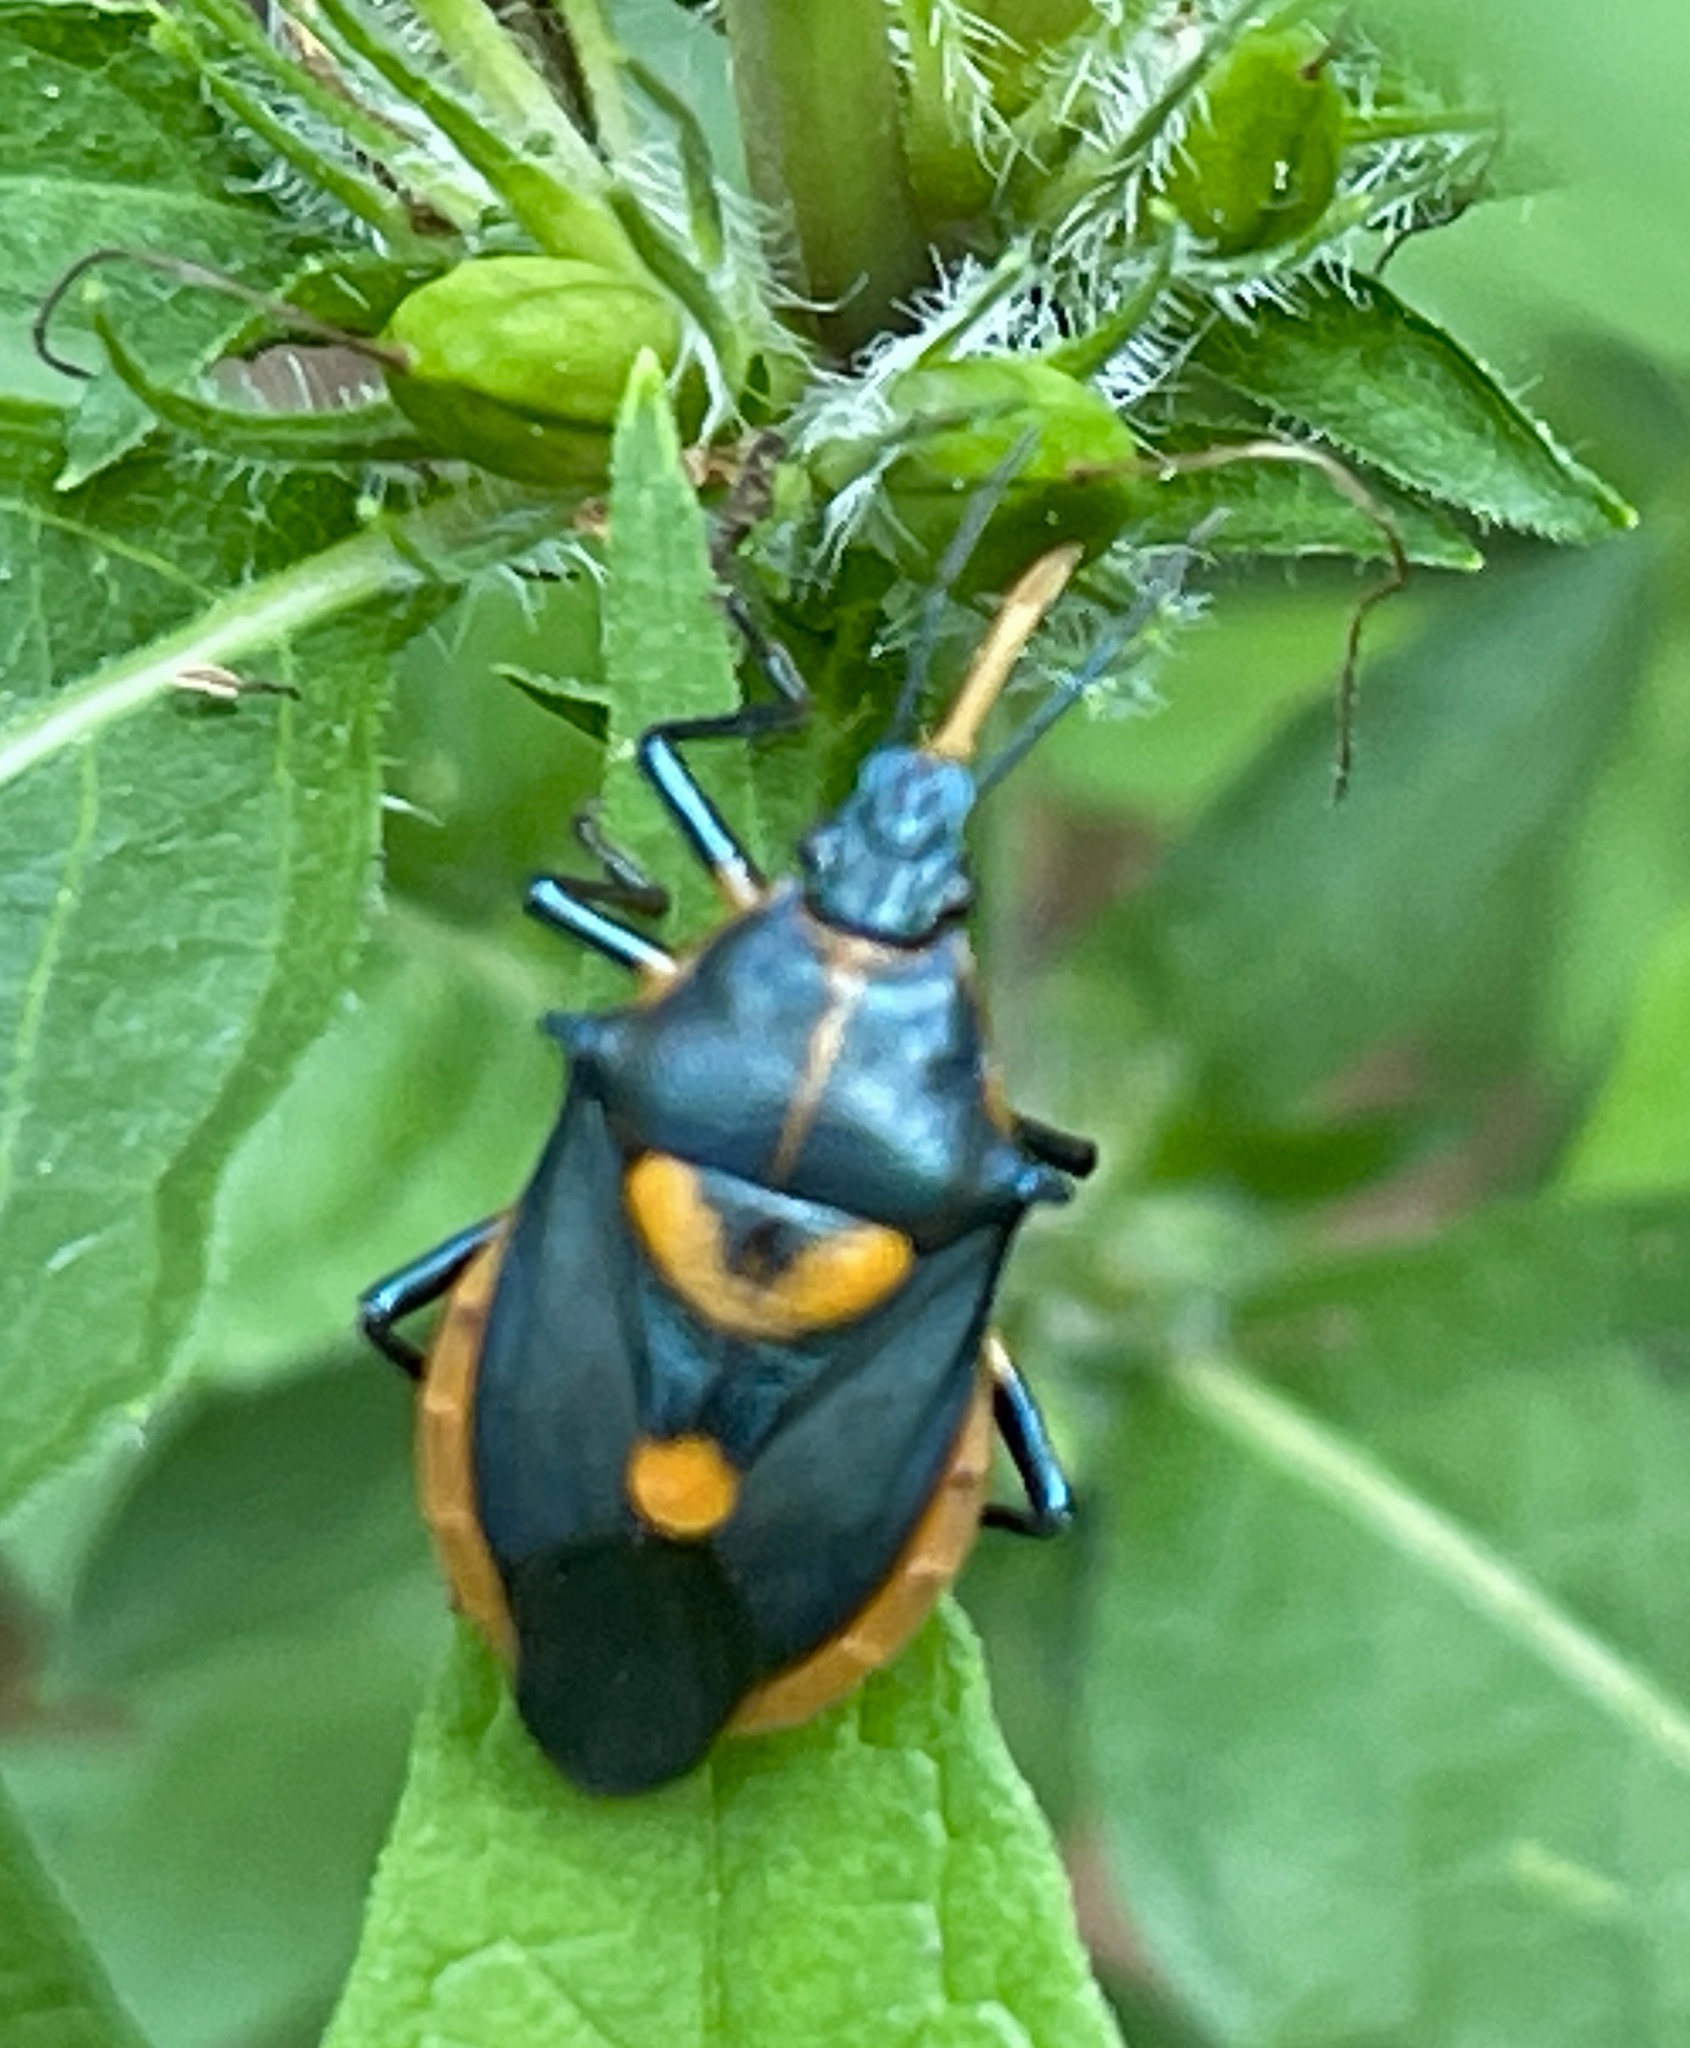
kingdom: Animalia
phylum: Arthropoda
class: Insecta
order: Hemiptera
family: Pentatomidae
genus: Euthyrhynchus
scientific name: Euthyrhynchus floridanus
